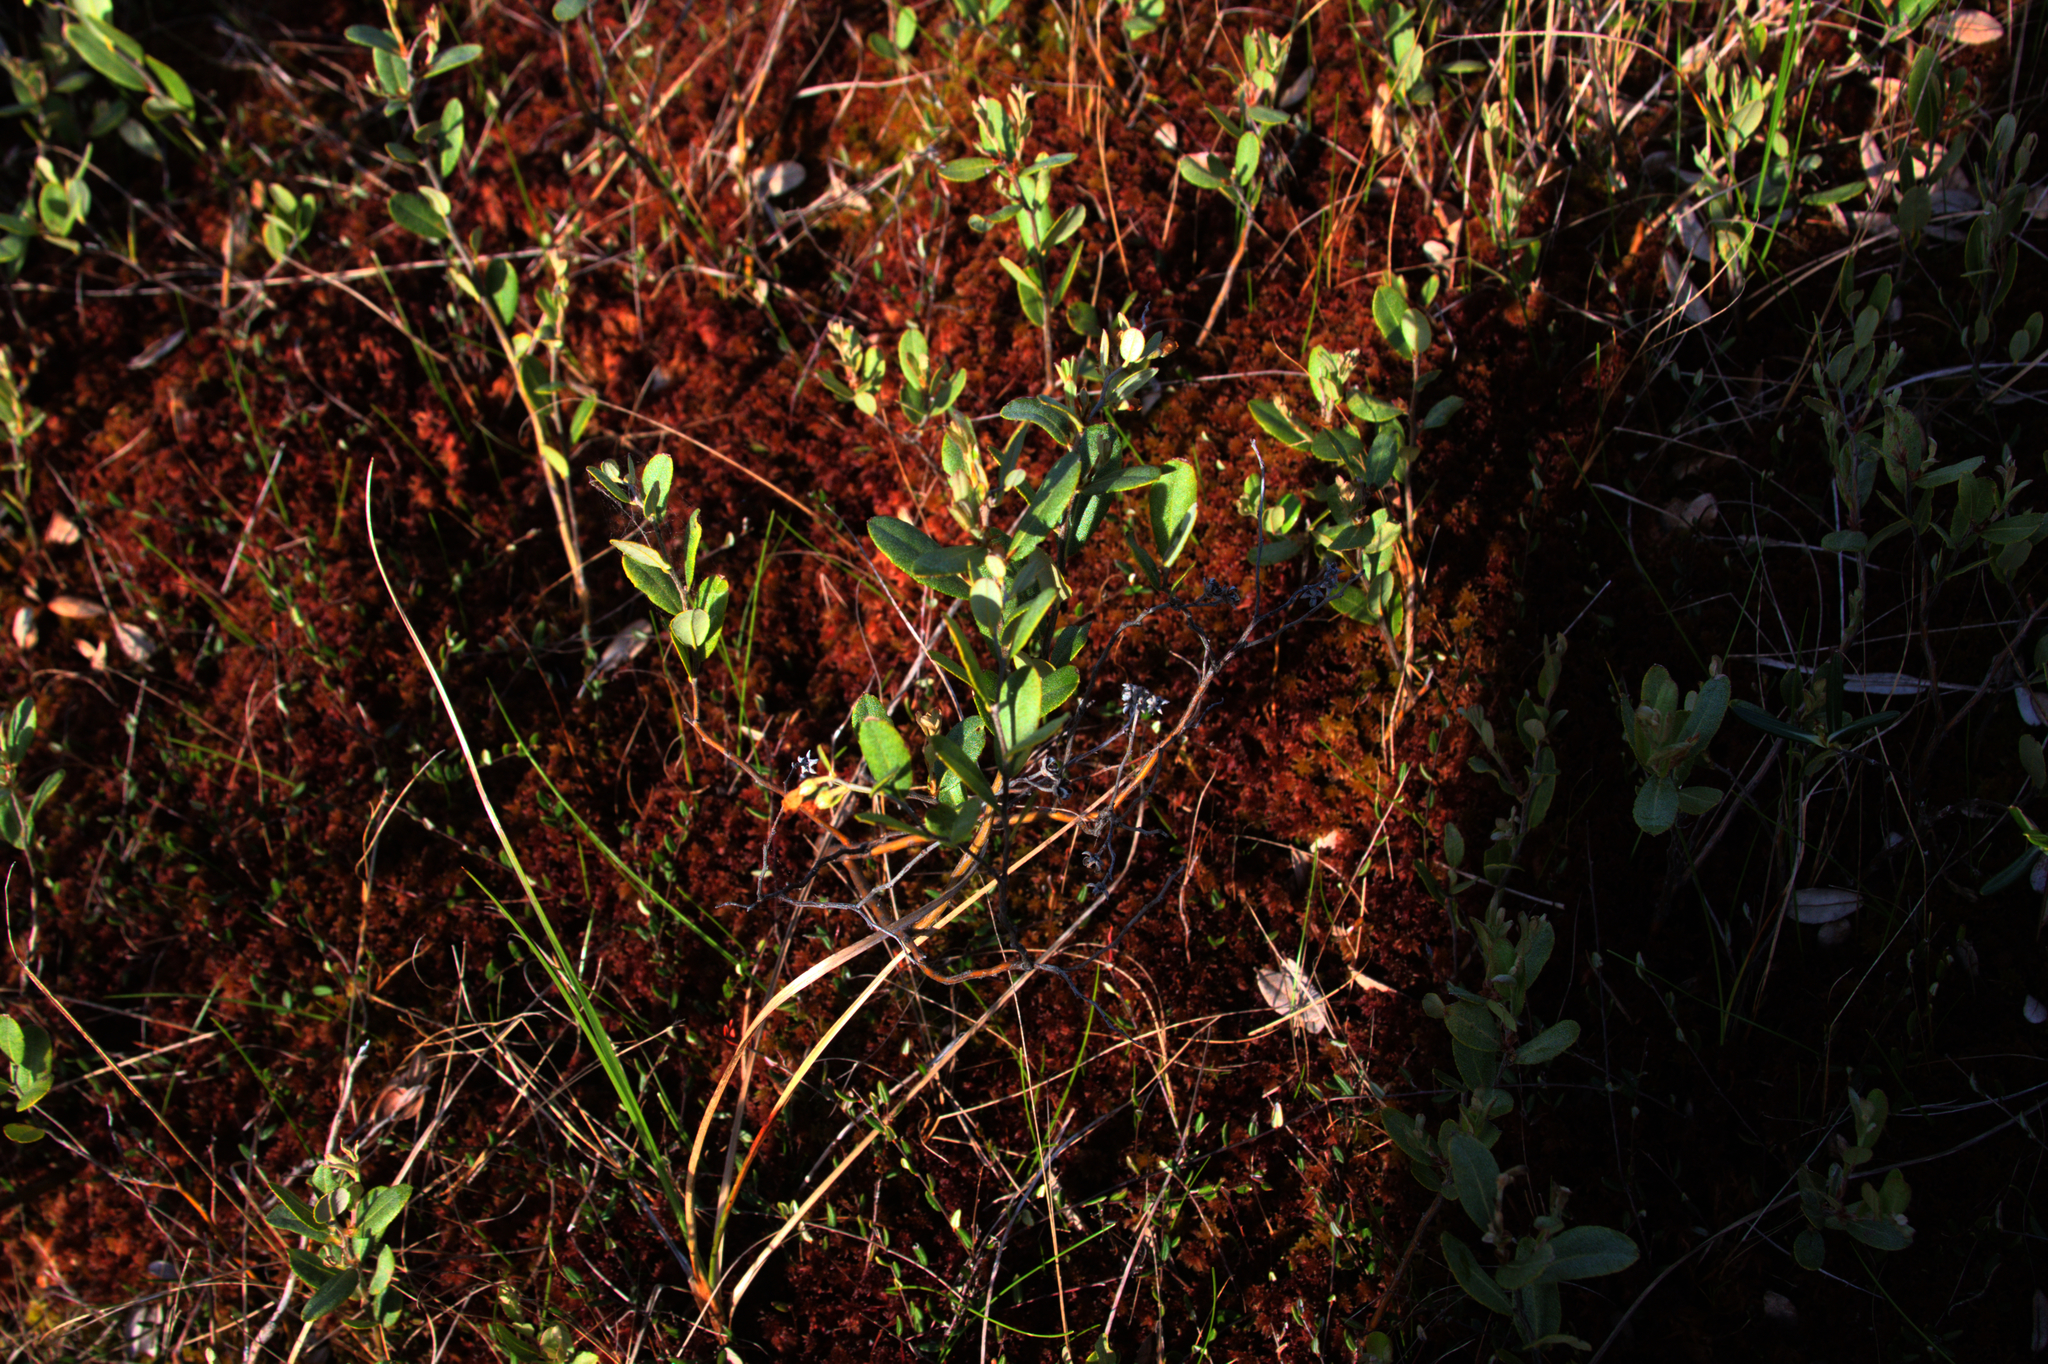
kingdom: Plantae
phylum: Tracheophyta
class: Magnoliopsida
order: Ericales
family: Ericaceae
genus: Chamaedaphne
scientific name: Chamaedaphne calyculata
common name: Leatherleaf
